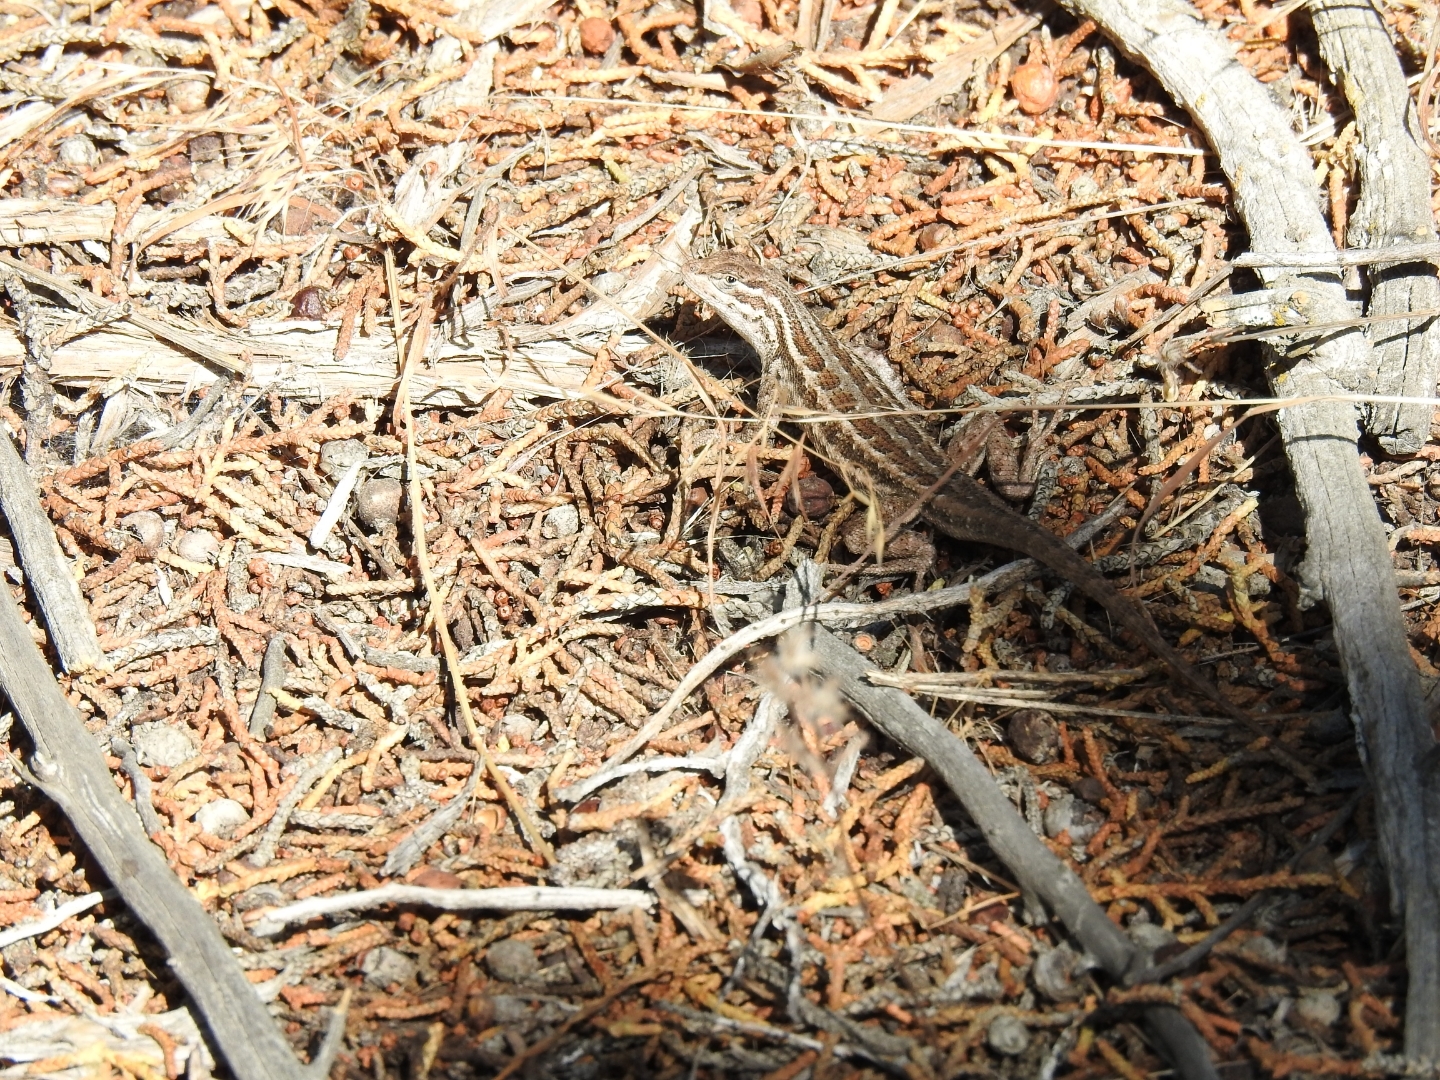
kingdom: Animalia
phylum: Chordata
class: Squamata
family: Phrynosomatidae
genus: Sceloporus
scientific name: Sceloporus graciosus
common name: Sagebrush lizard
